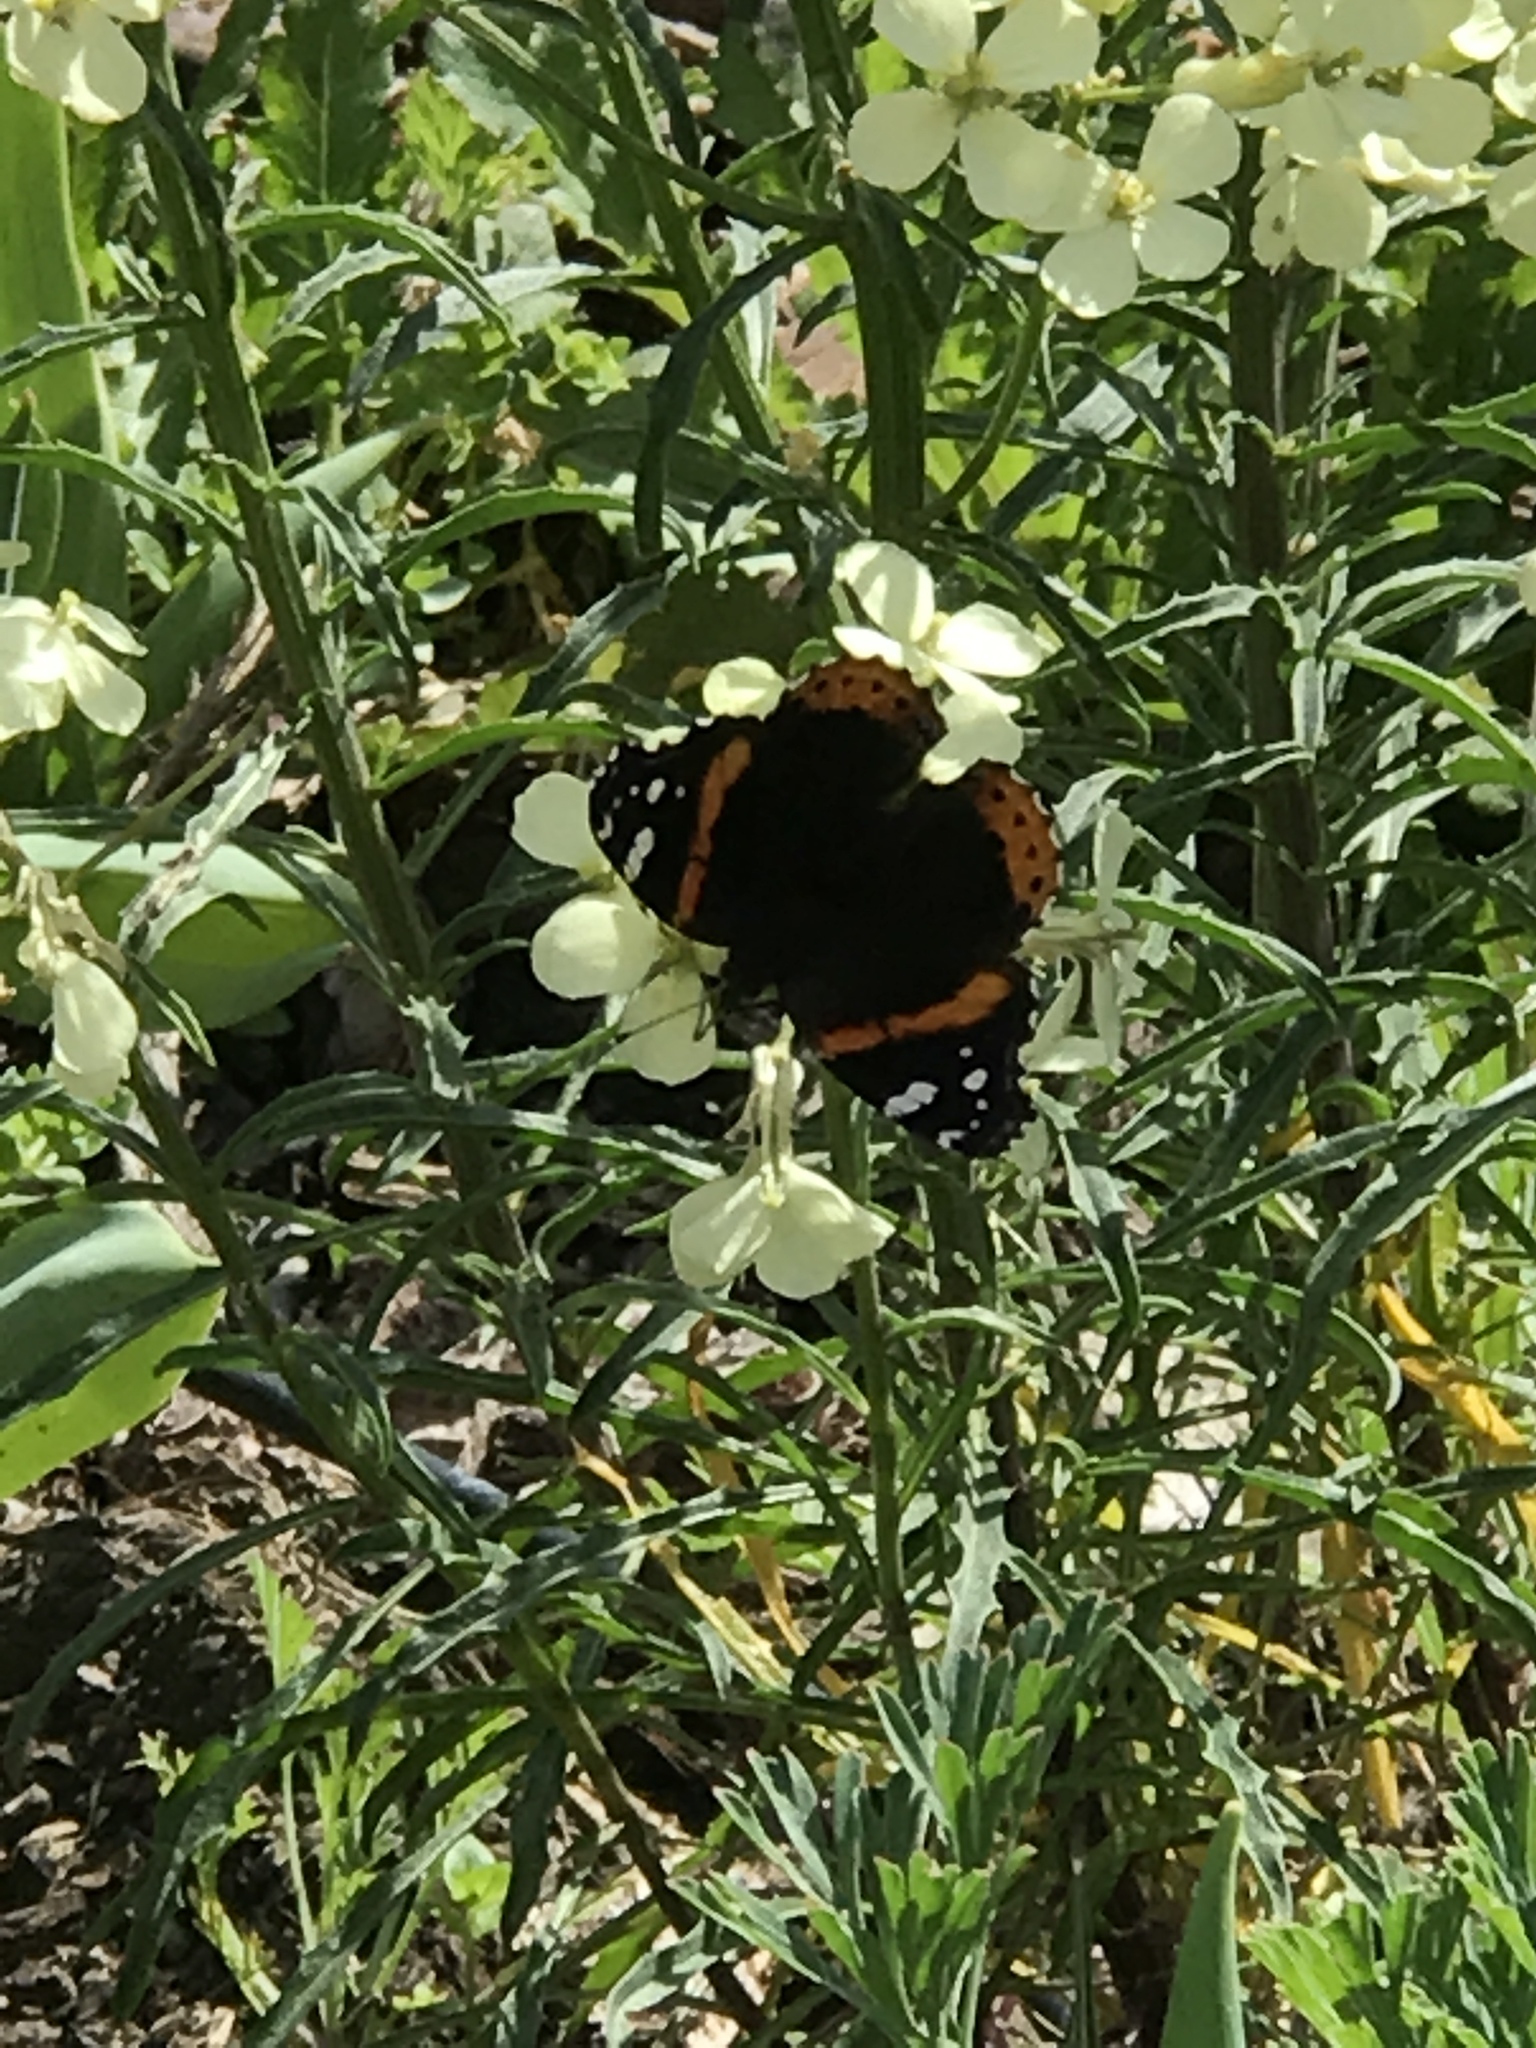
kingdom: Animalia
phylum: Arthropoda
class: Insecta
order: Lepidoptera
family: Nymphalidae
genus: Vanessa
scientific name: Vanessa atalanta
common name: Red admiral
